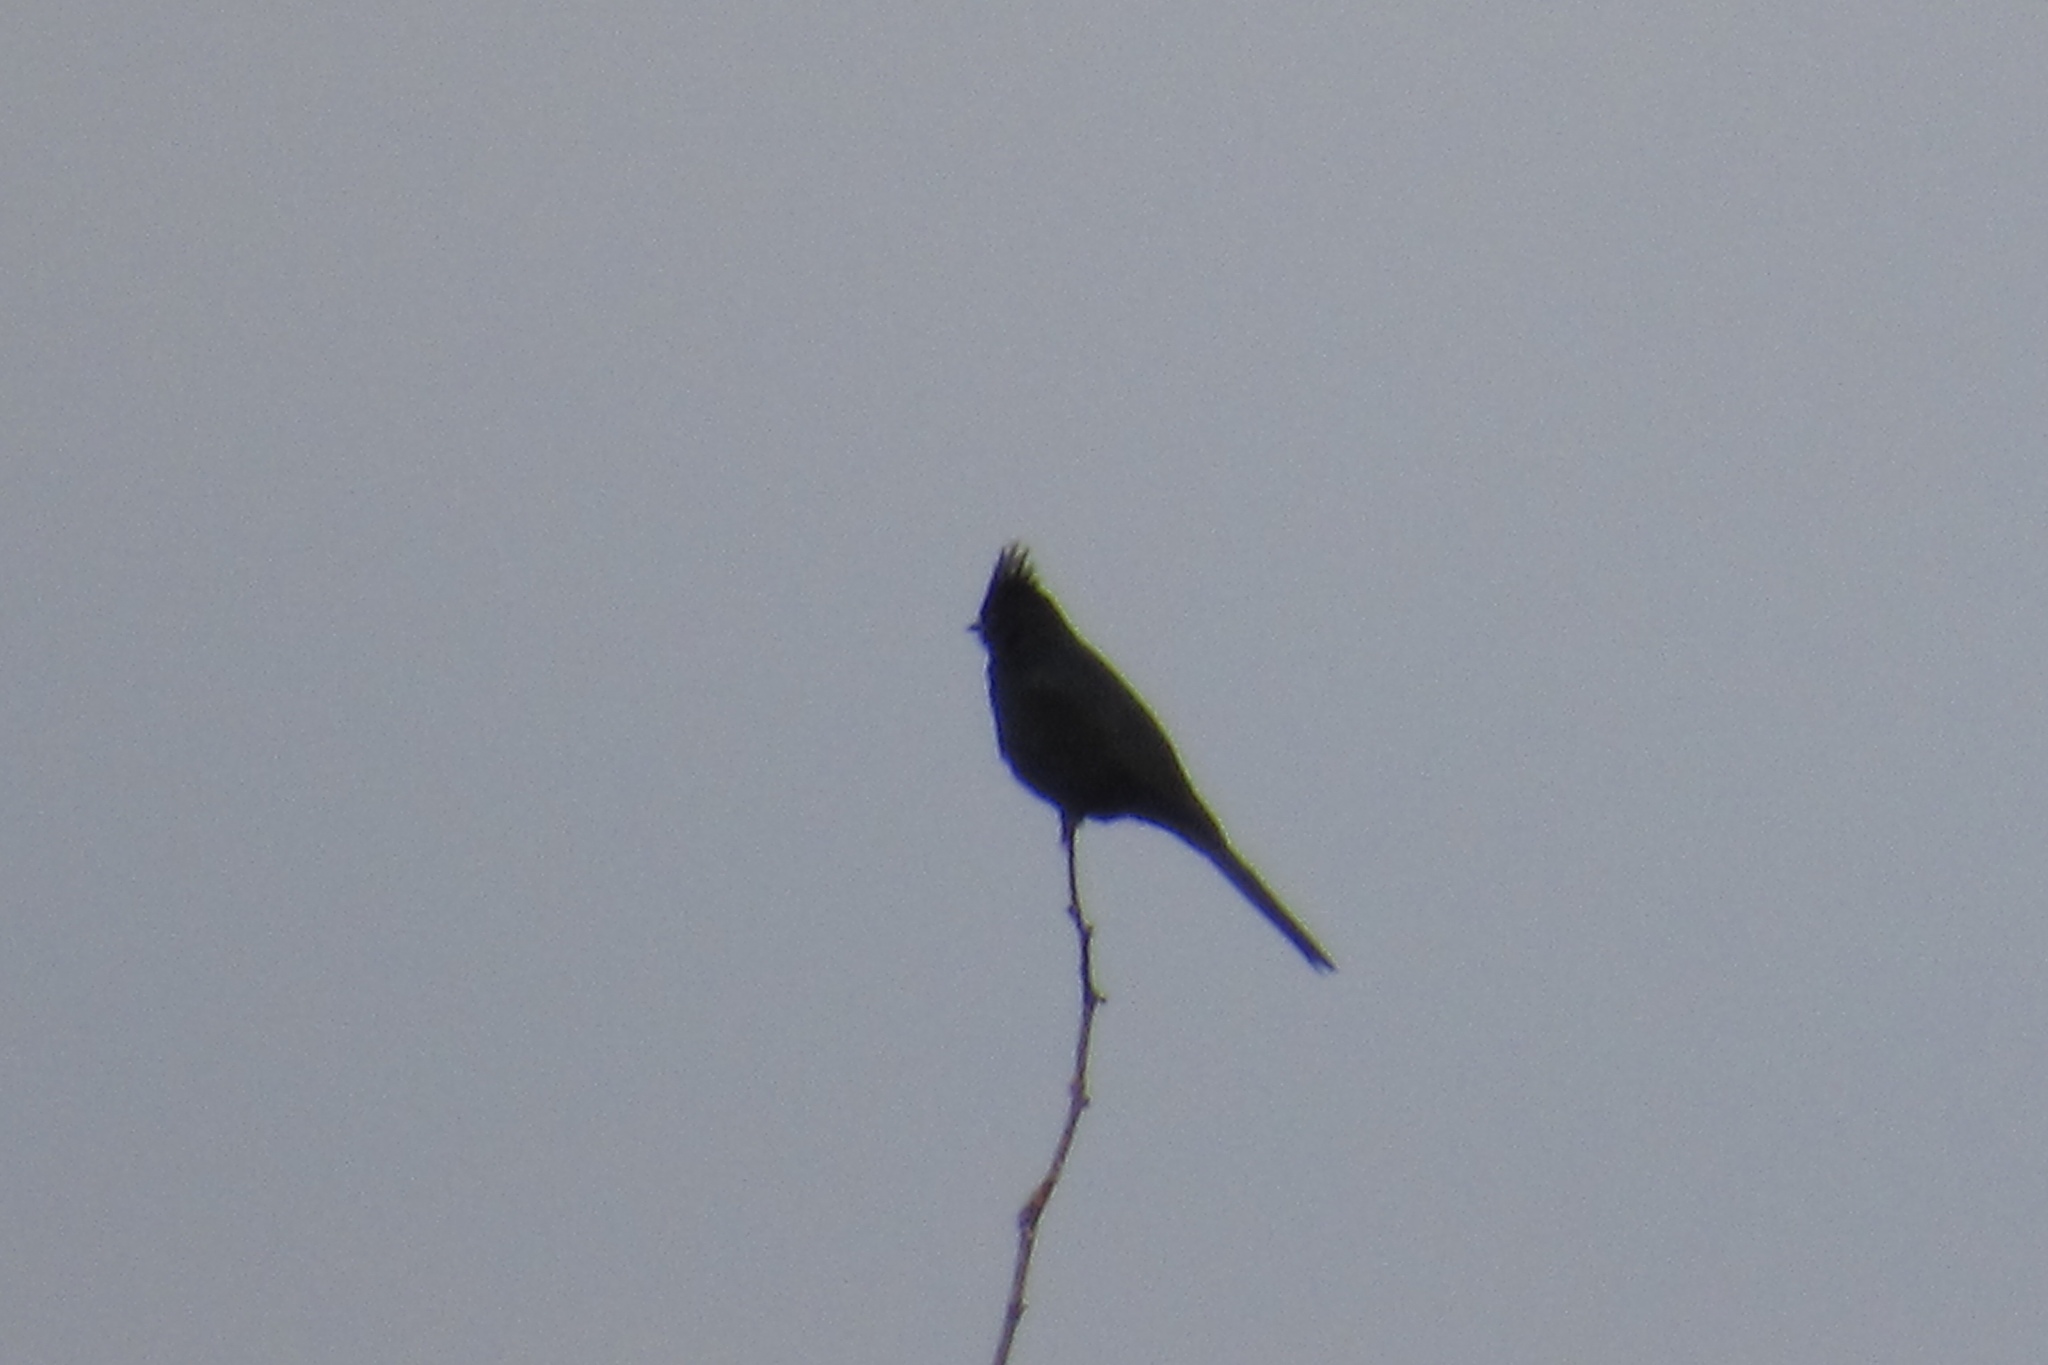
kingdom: Animalia
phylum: Chordata
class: Aves
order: Passeriformes
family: Ptilogonatidae
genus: Phainopepla
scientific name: Phainopepla nitens
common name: Phainopepla
